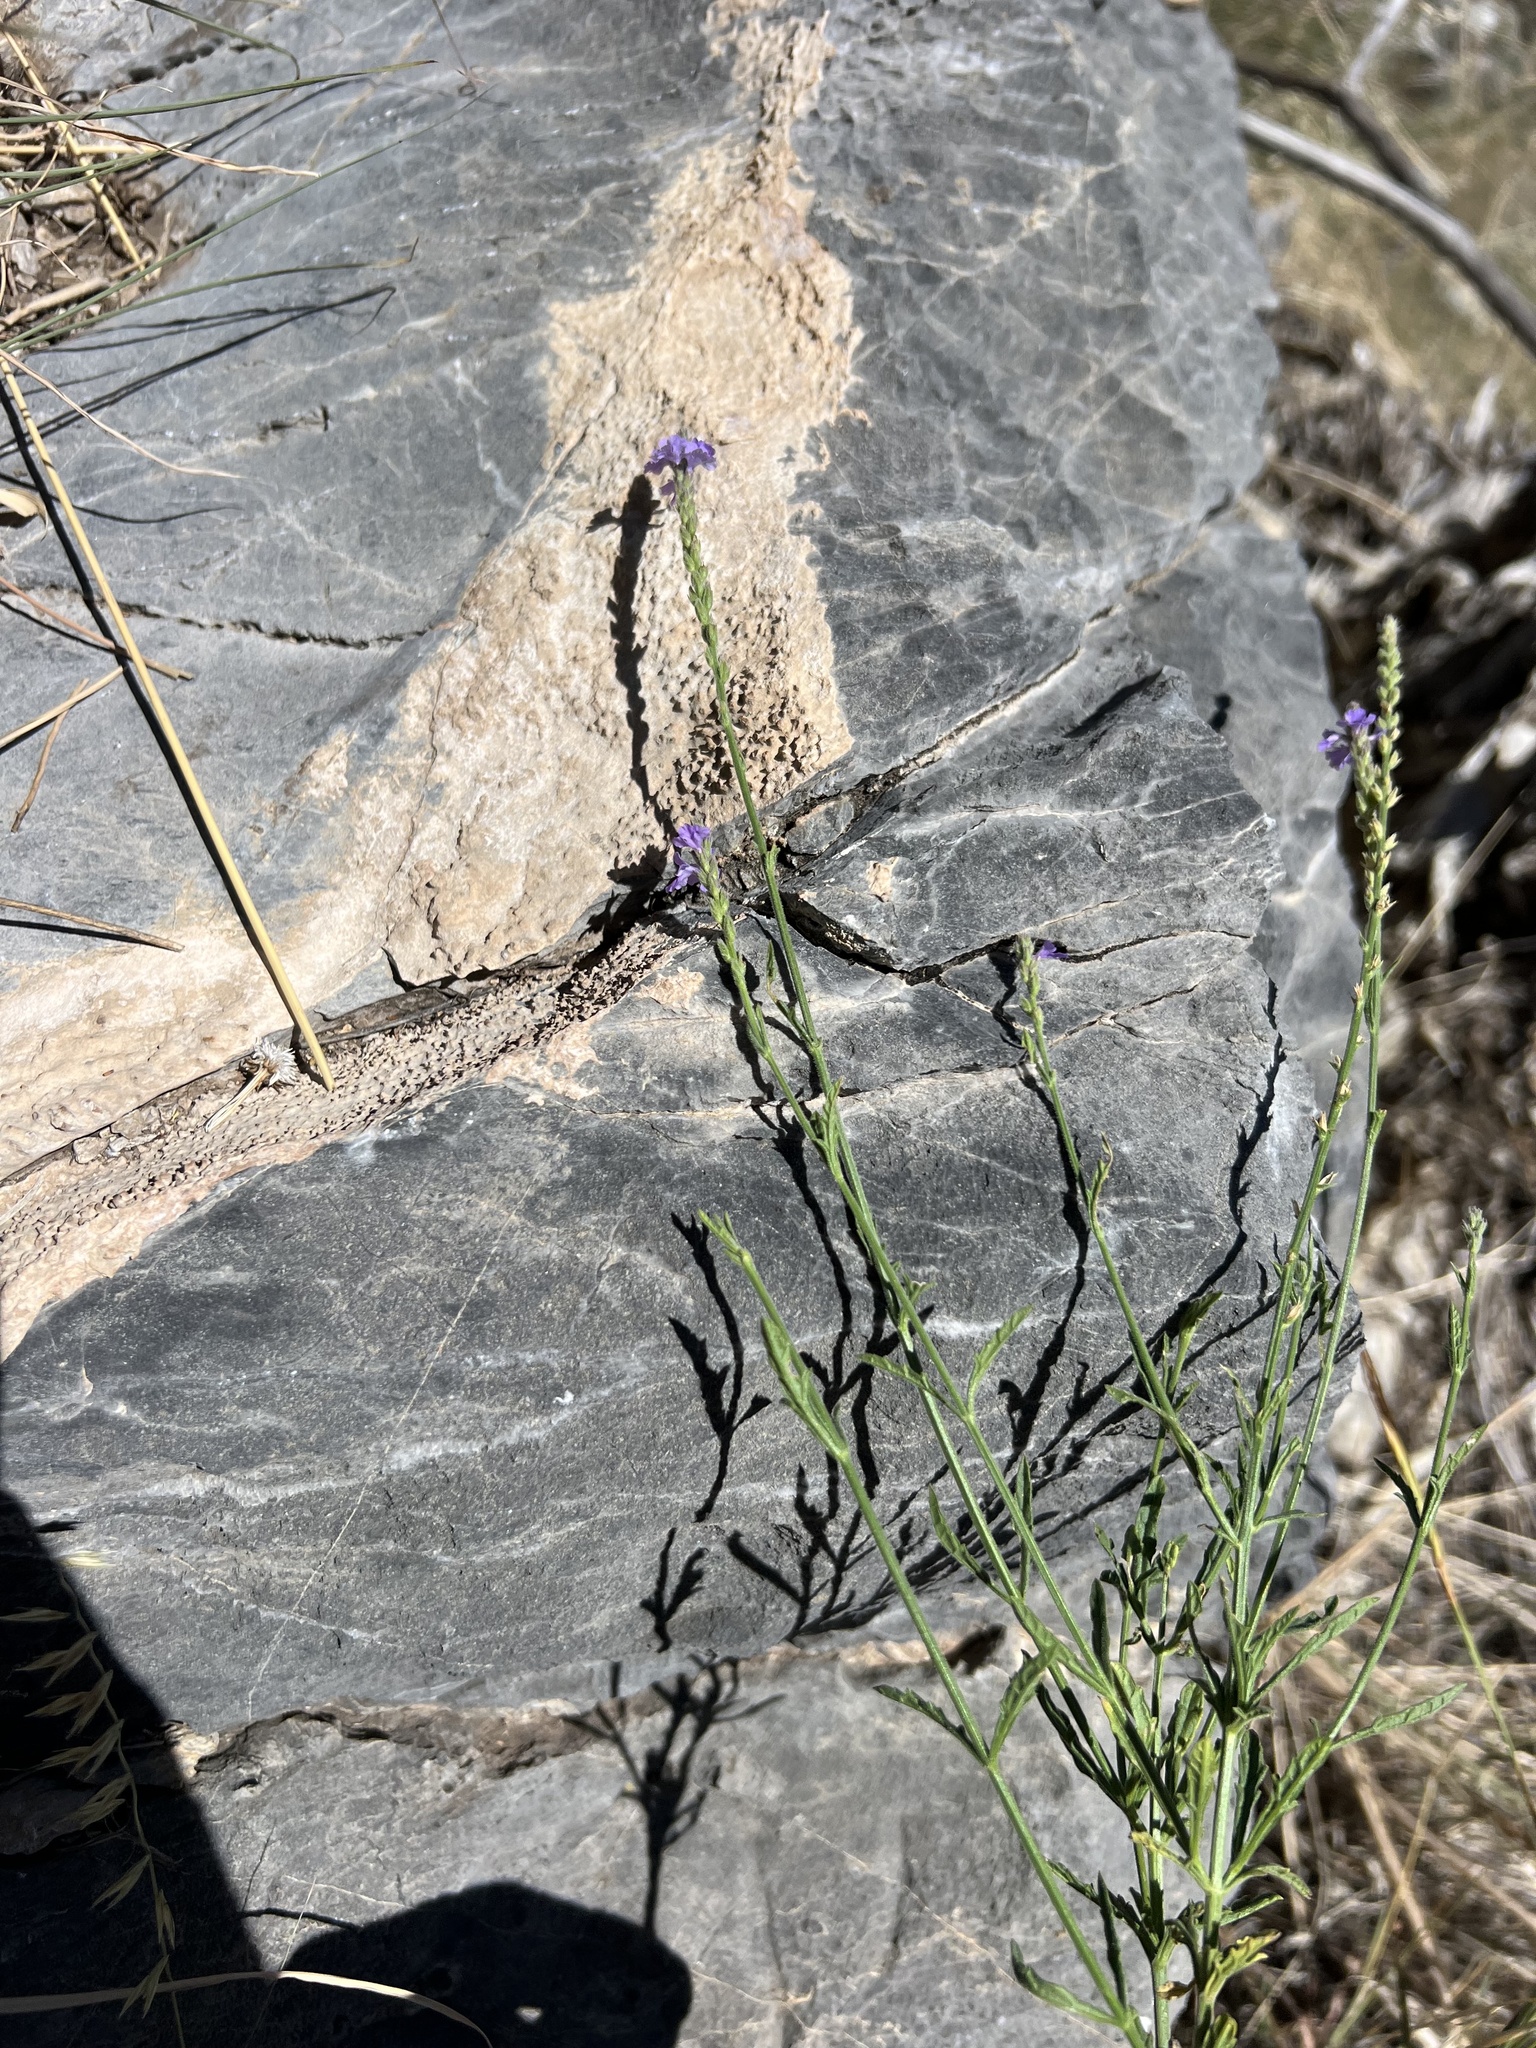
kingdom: Plantae
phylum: Tracheophyta
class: Magnoliopsida
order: Lamiales
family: Verbenaceae
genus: Verbena
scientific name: Verbena neomexicana
